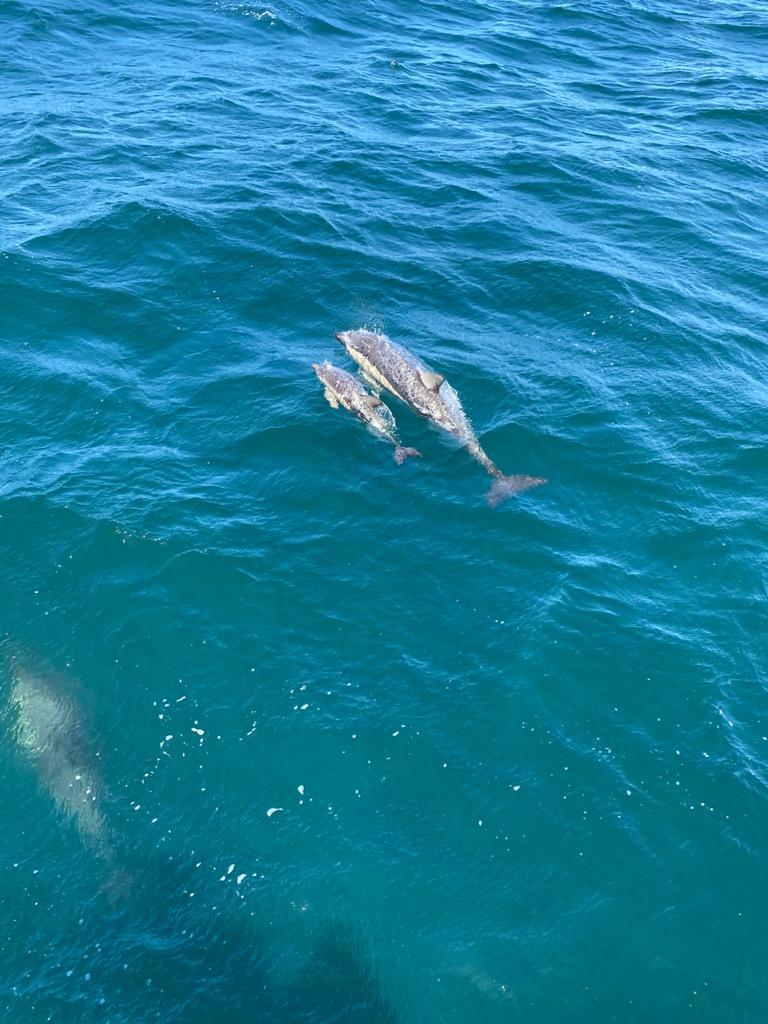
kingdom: Animalia
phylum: Chordata
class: Mammalia
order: Cetacea
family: Delphinidae
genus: Delphinus
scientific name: Delphinus delphis
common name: Common dolphin
